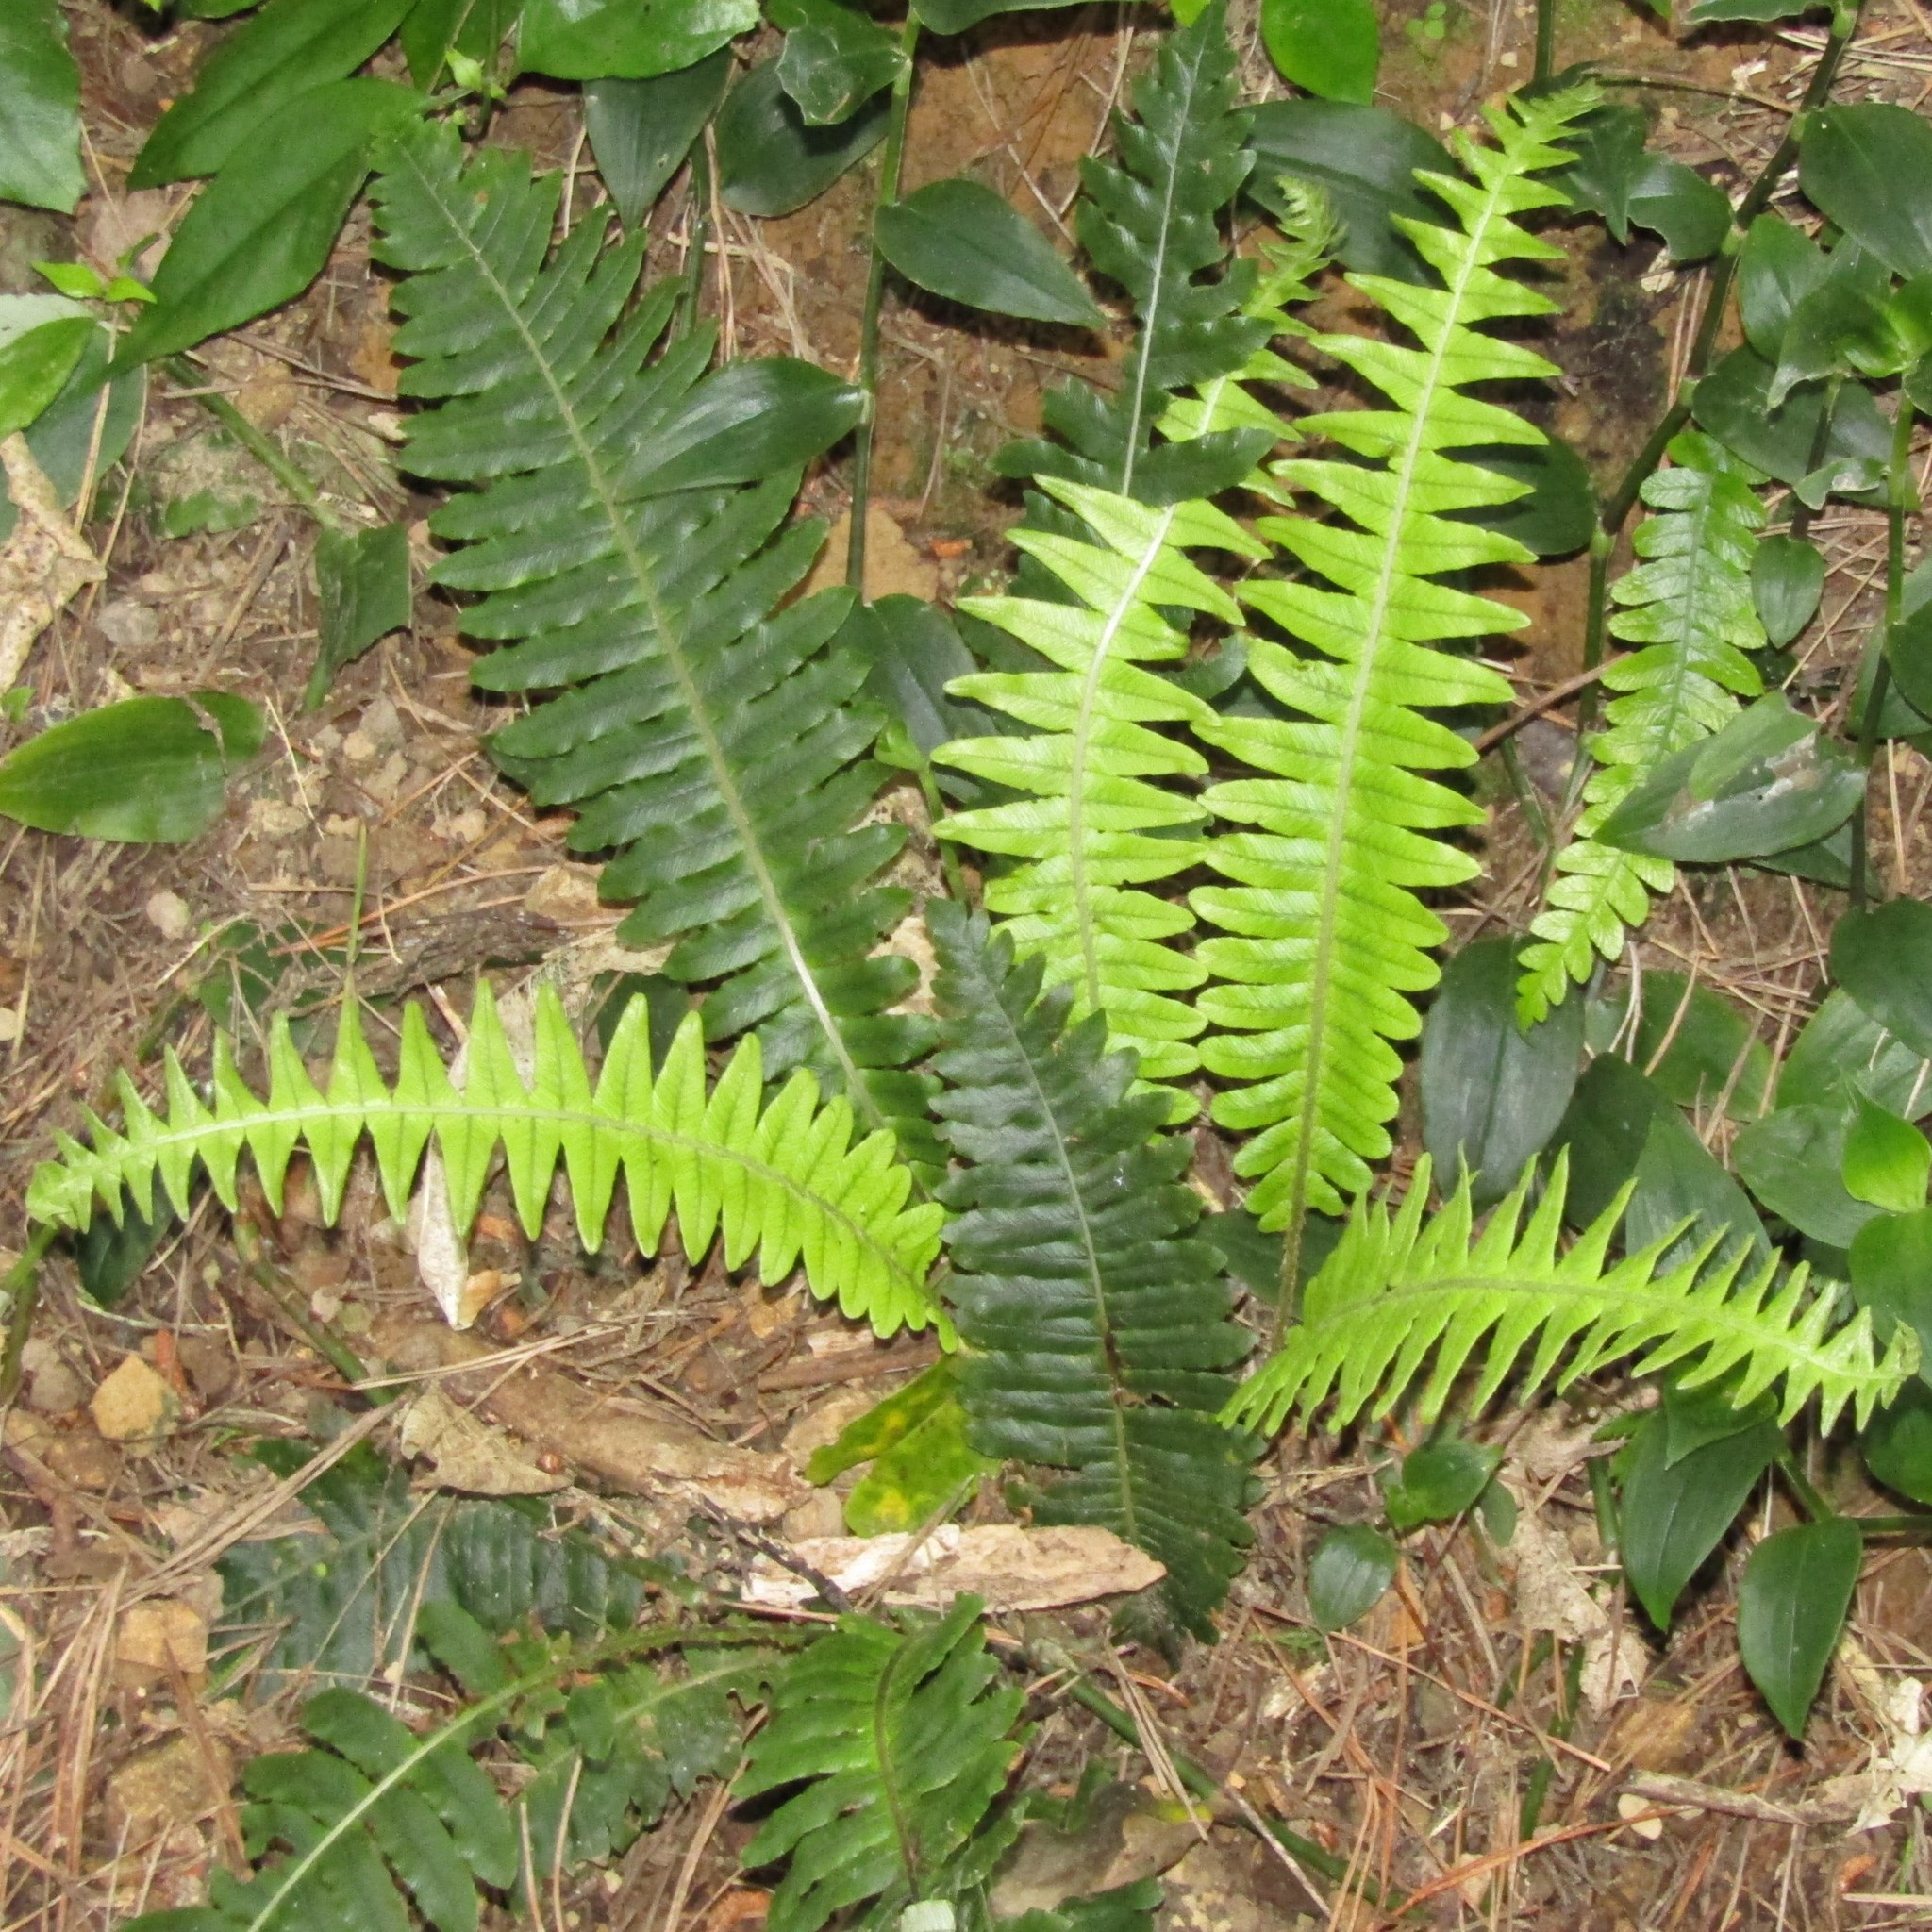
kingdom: Plantae
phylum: Tracheophyta
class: Polypodiopsida
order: Polypodiales
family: Blechnaceae
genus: Lomaria
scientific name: Lomaria discolor
